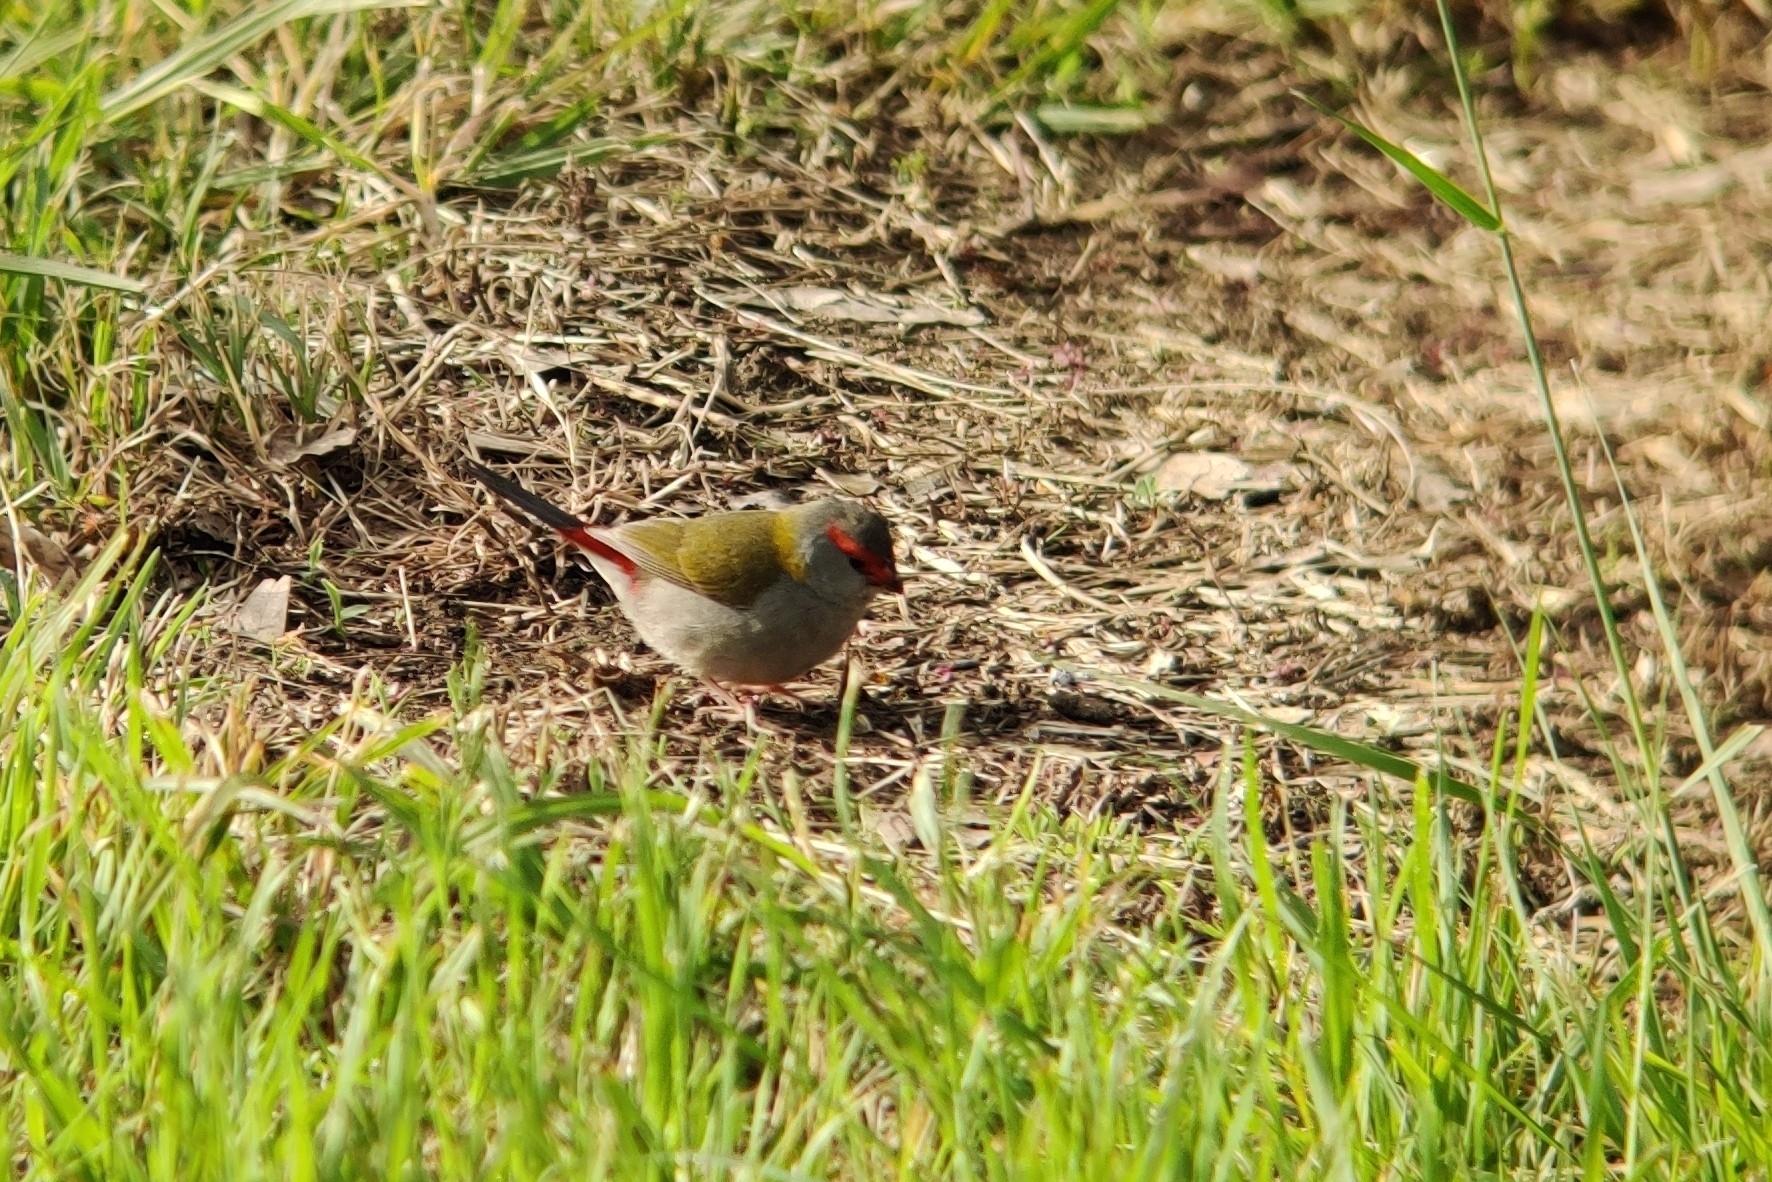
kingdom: Animalia
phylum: Chordata
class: Aves
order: Passeriformes
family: Estrildidae
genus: Neochmia
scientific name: Neochmia temporalis
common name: Red-browed finch
